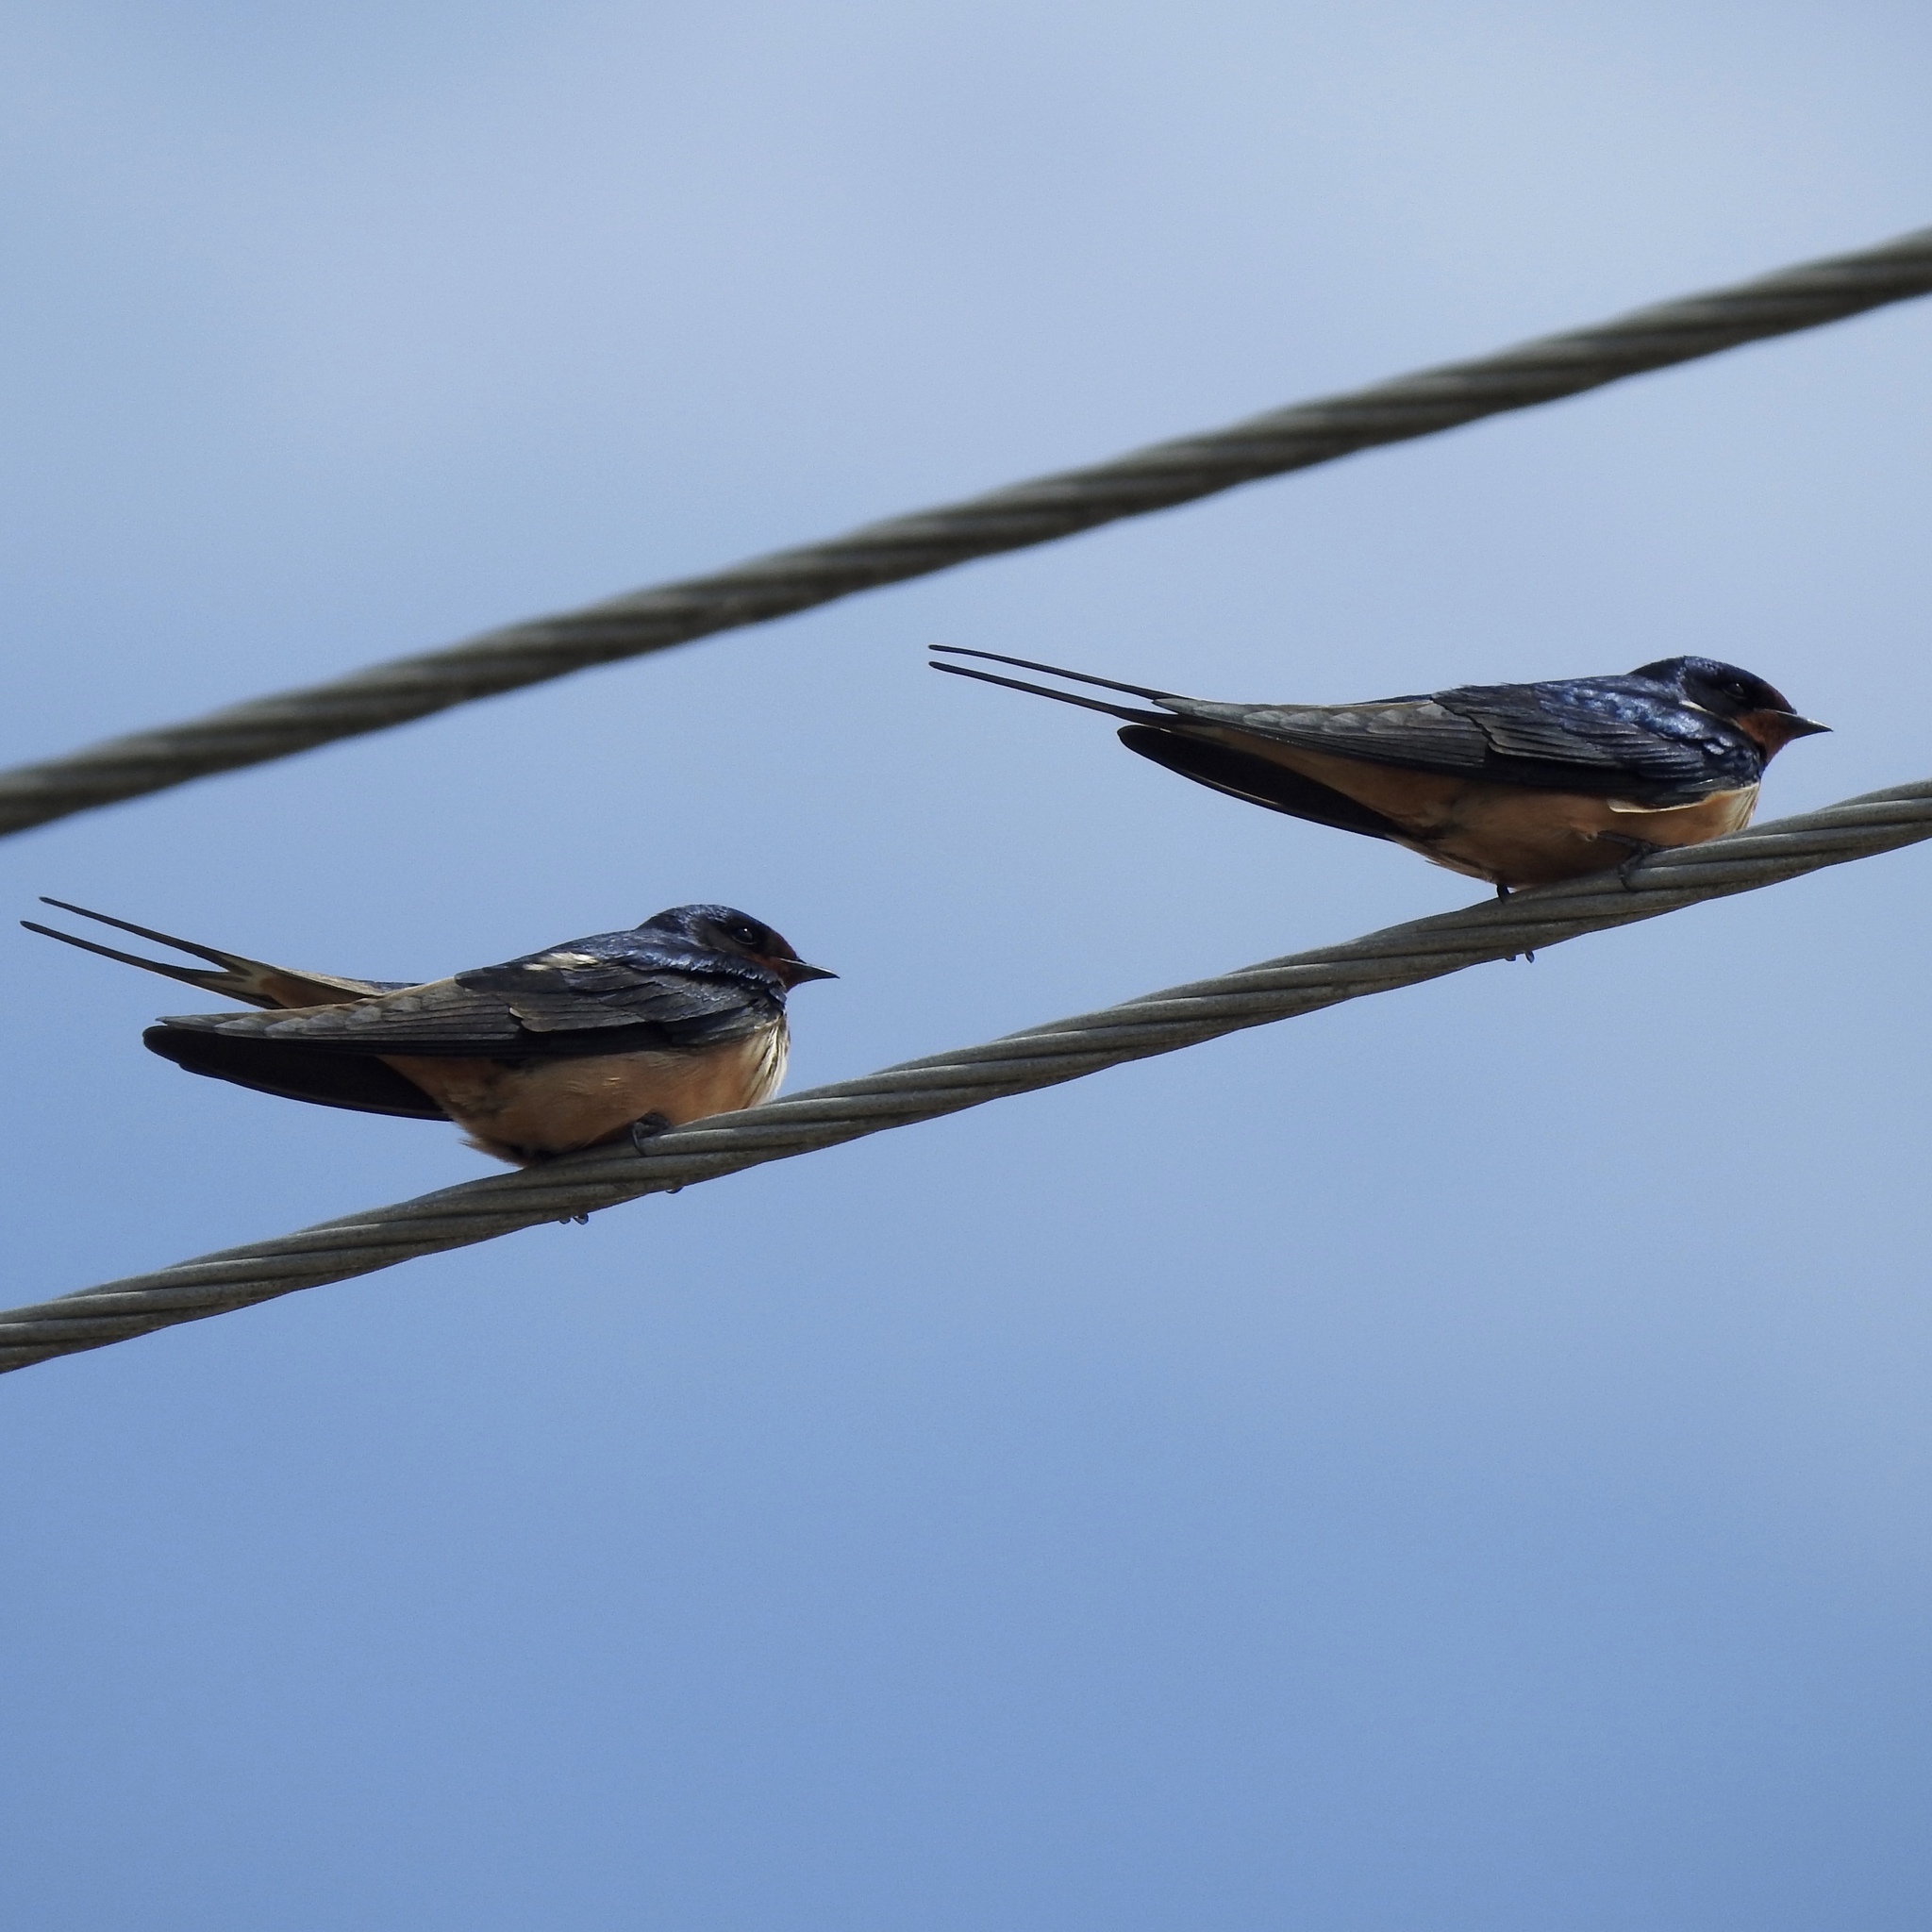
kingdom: Animalia
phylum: Chordata
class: Aves
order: Passeriformes
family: Hirundinidae
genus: Hirundo
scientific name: Hirundo rustica
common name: Barn swallow
